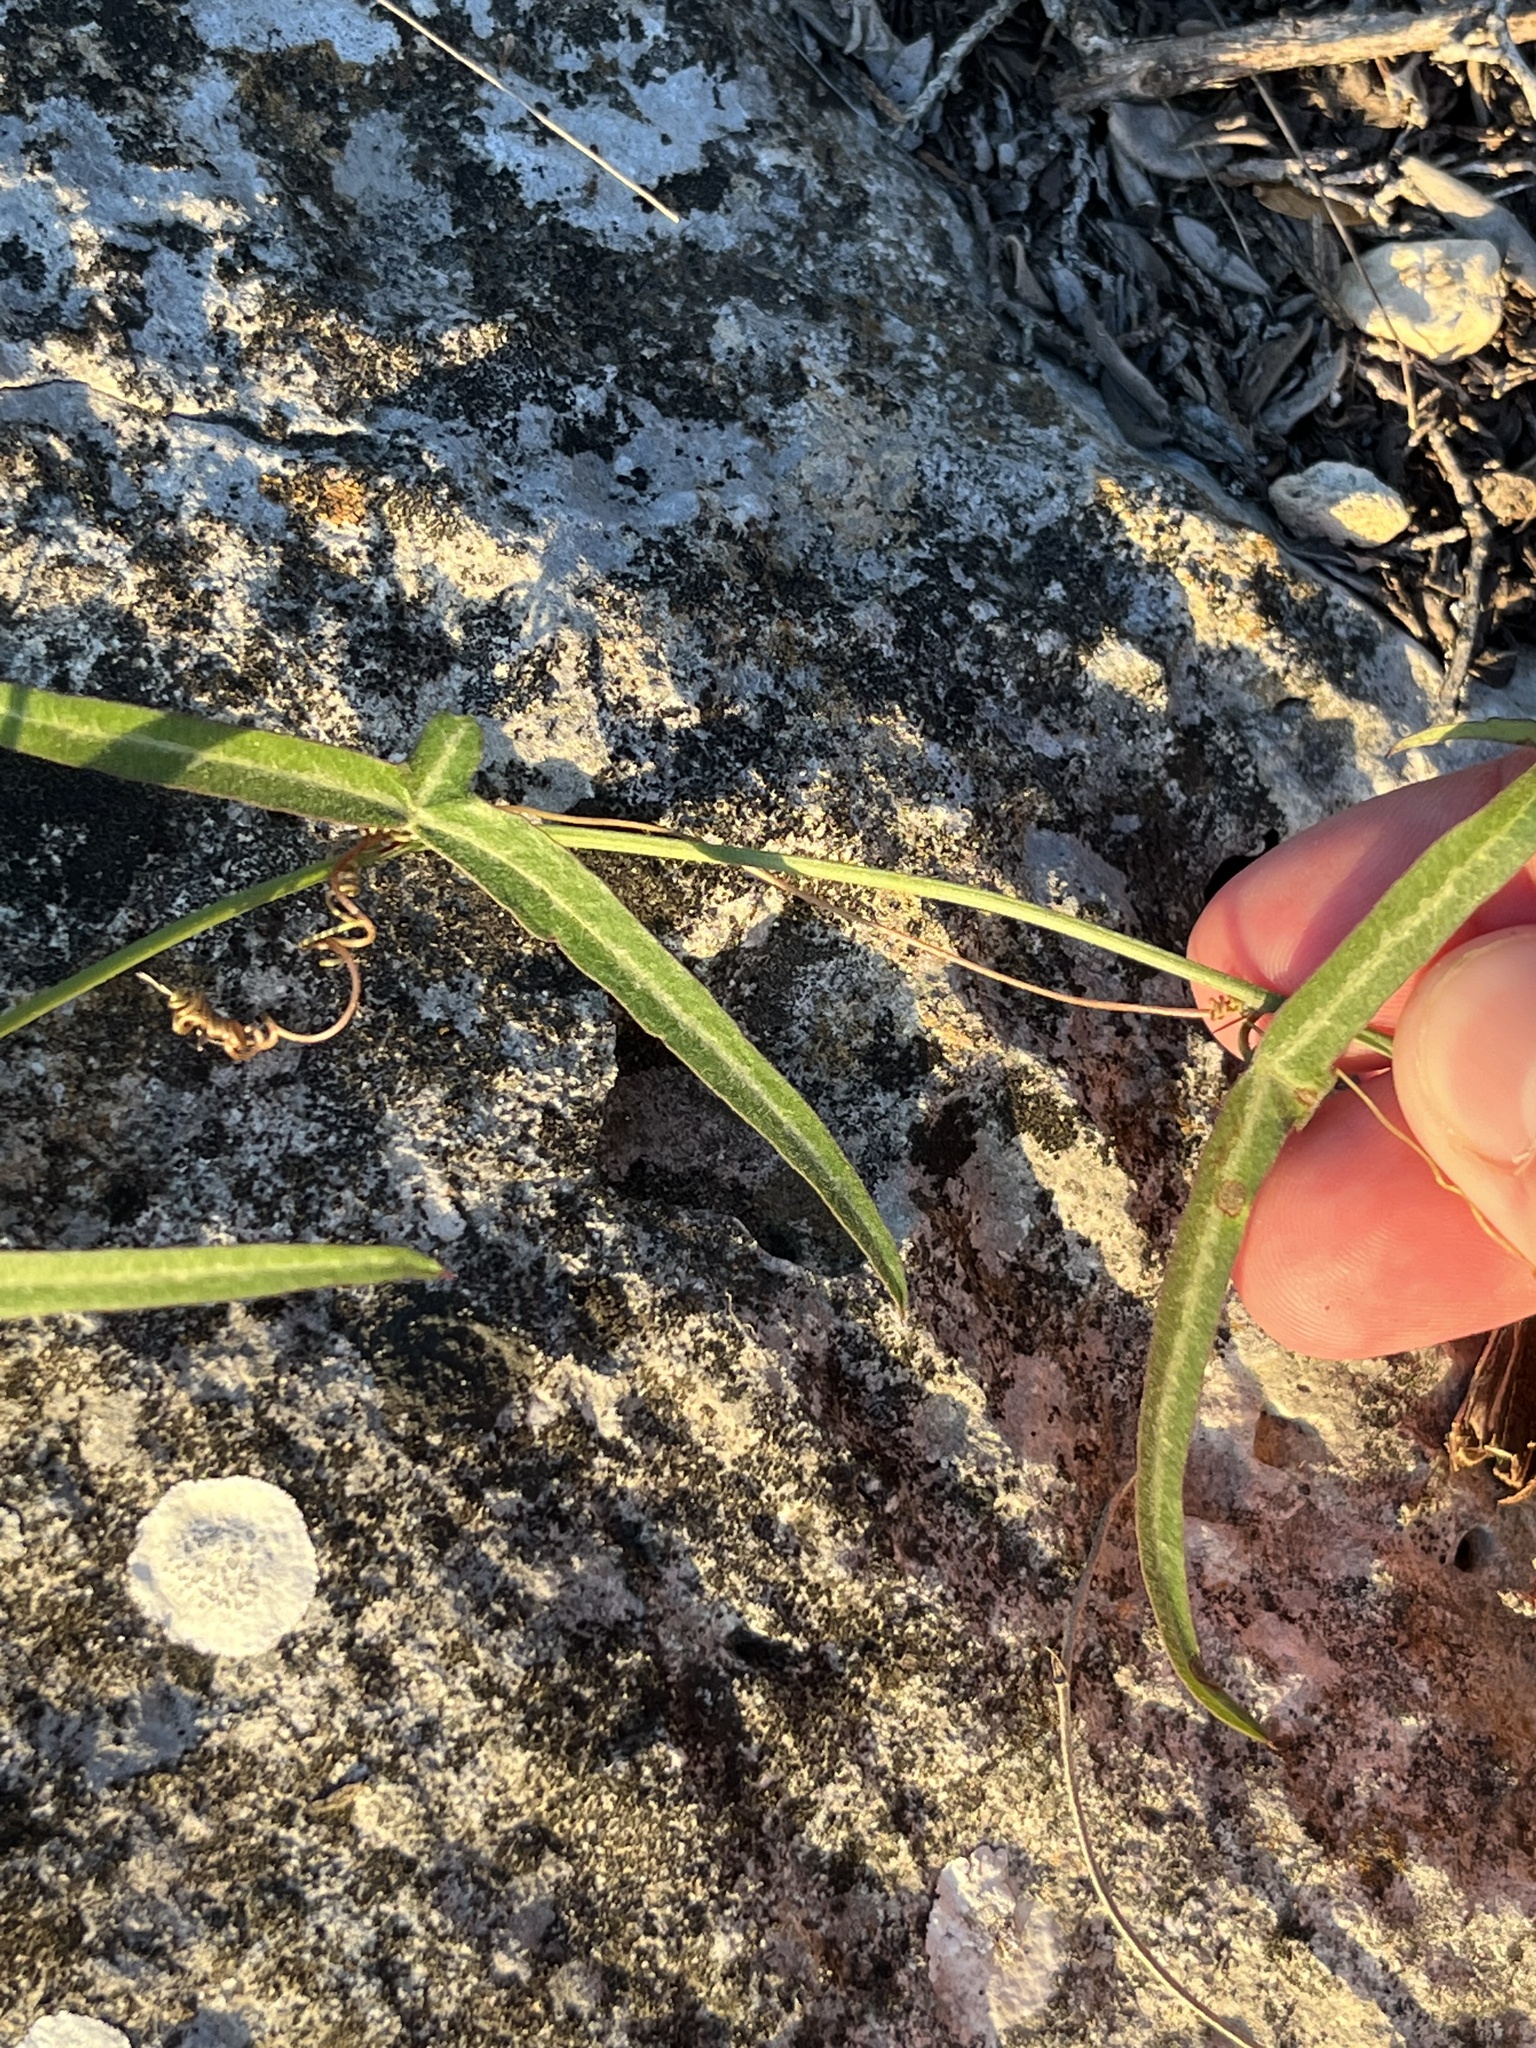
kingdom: Plantae
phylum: Tracheophyta
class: Magnoliopsida
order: Malpighiales
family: Passifloraceae
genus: Passiflora
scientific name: Passiflora tenuiloba
